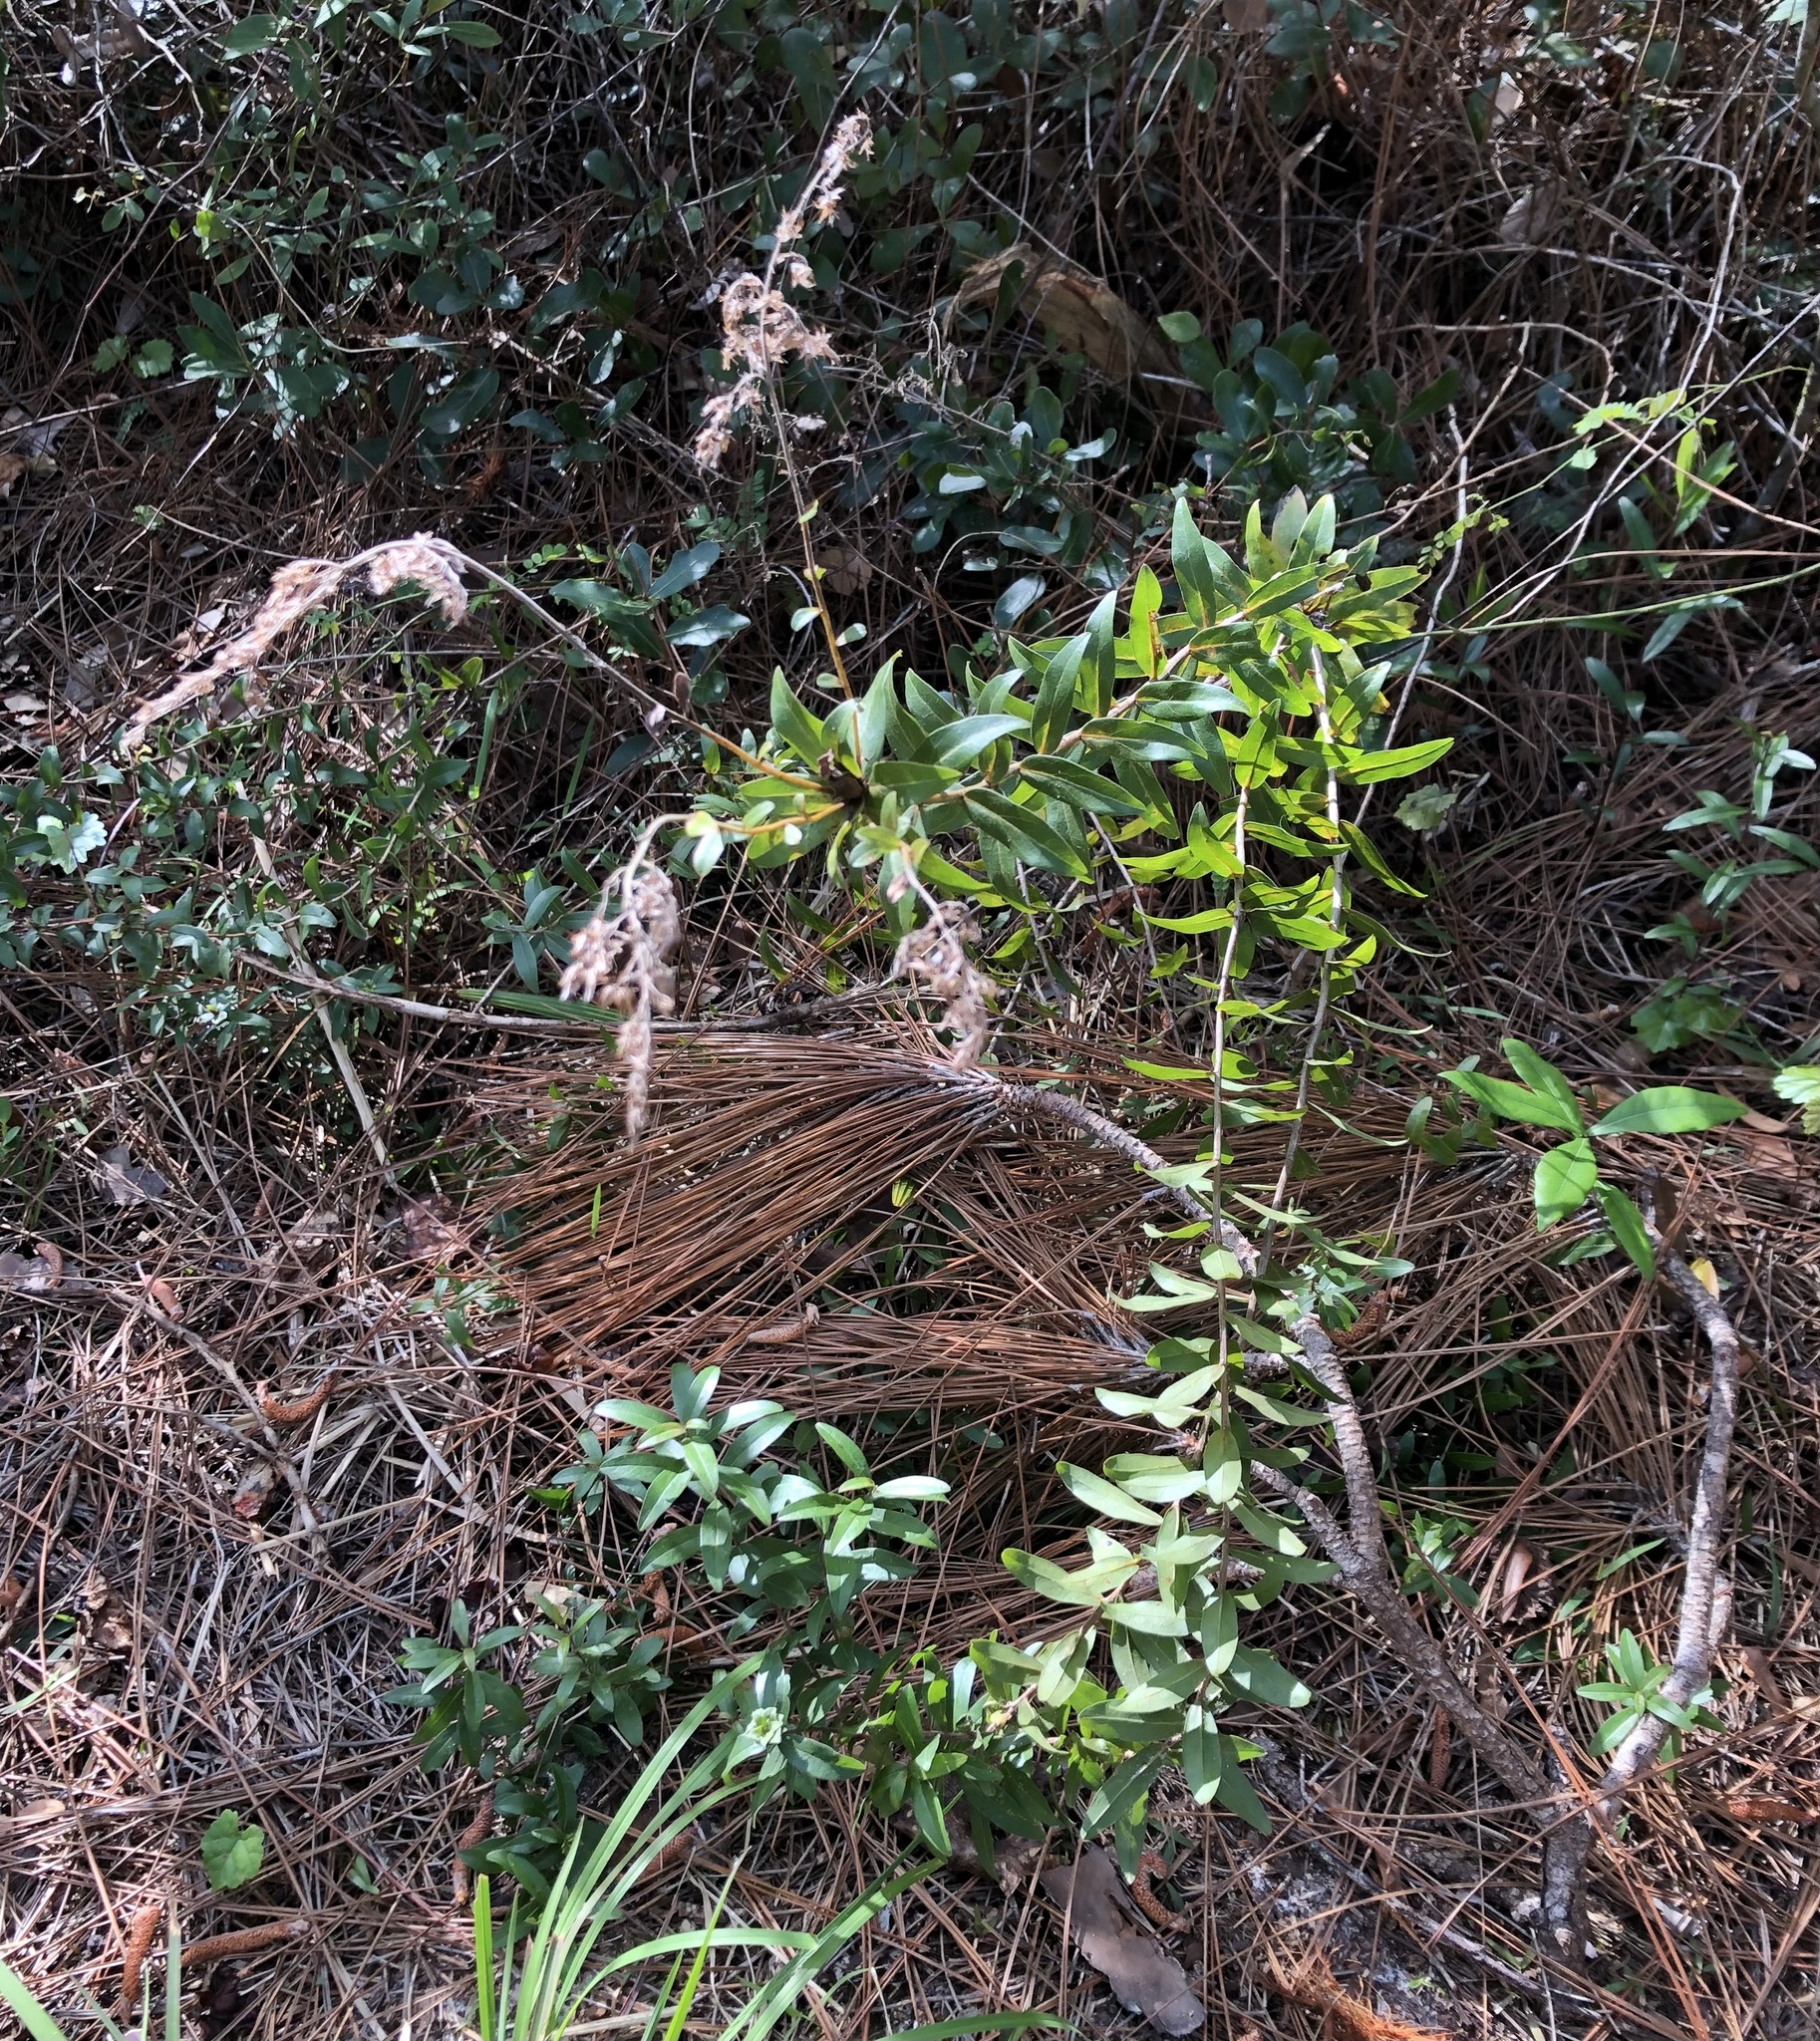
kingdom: Plantae
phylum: Tracheophyta
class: Magnoliopsida
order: Asterales
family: Asteraceae
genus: Solidago
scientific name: Solidago chapmanii
